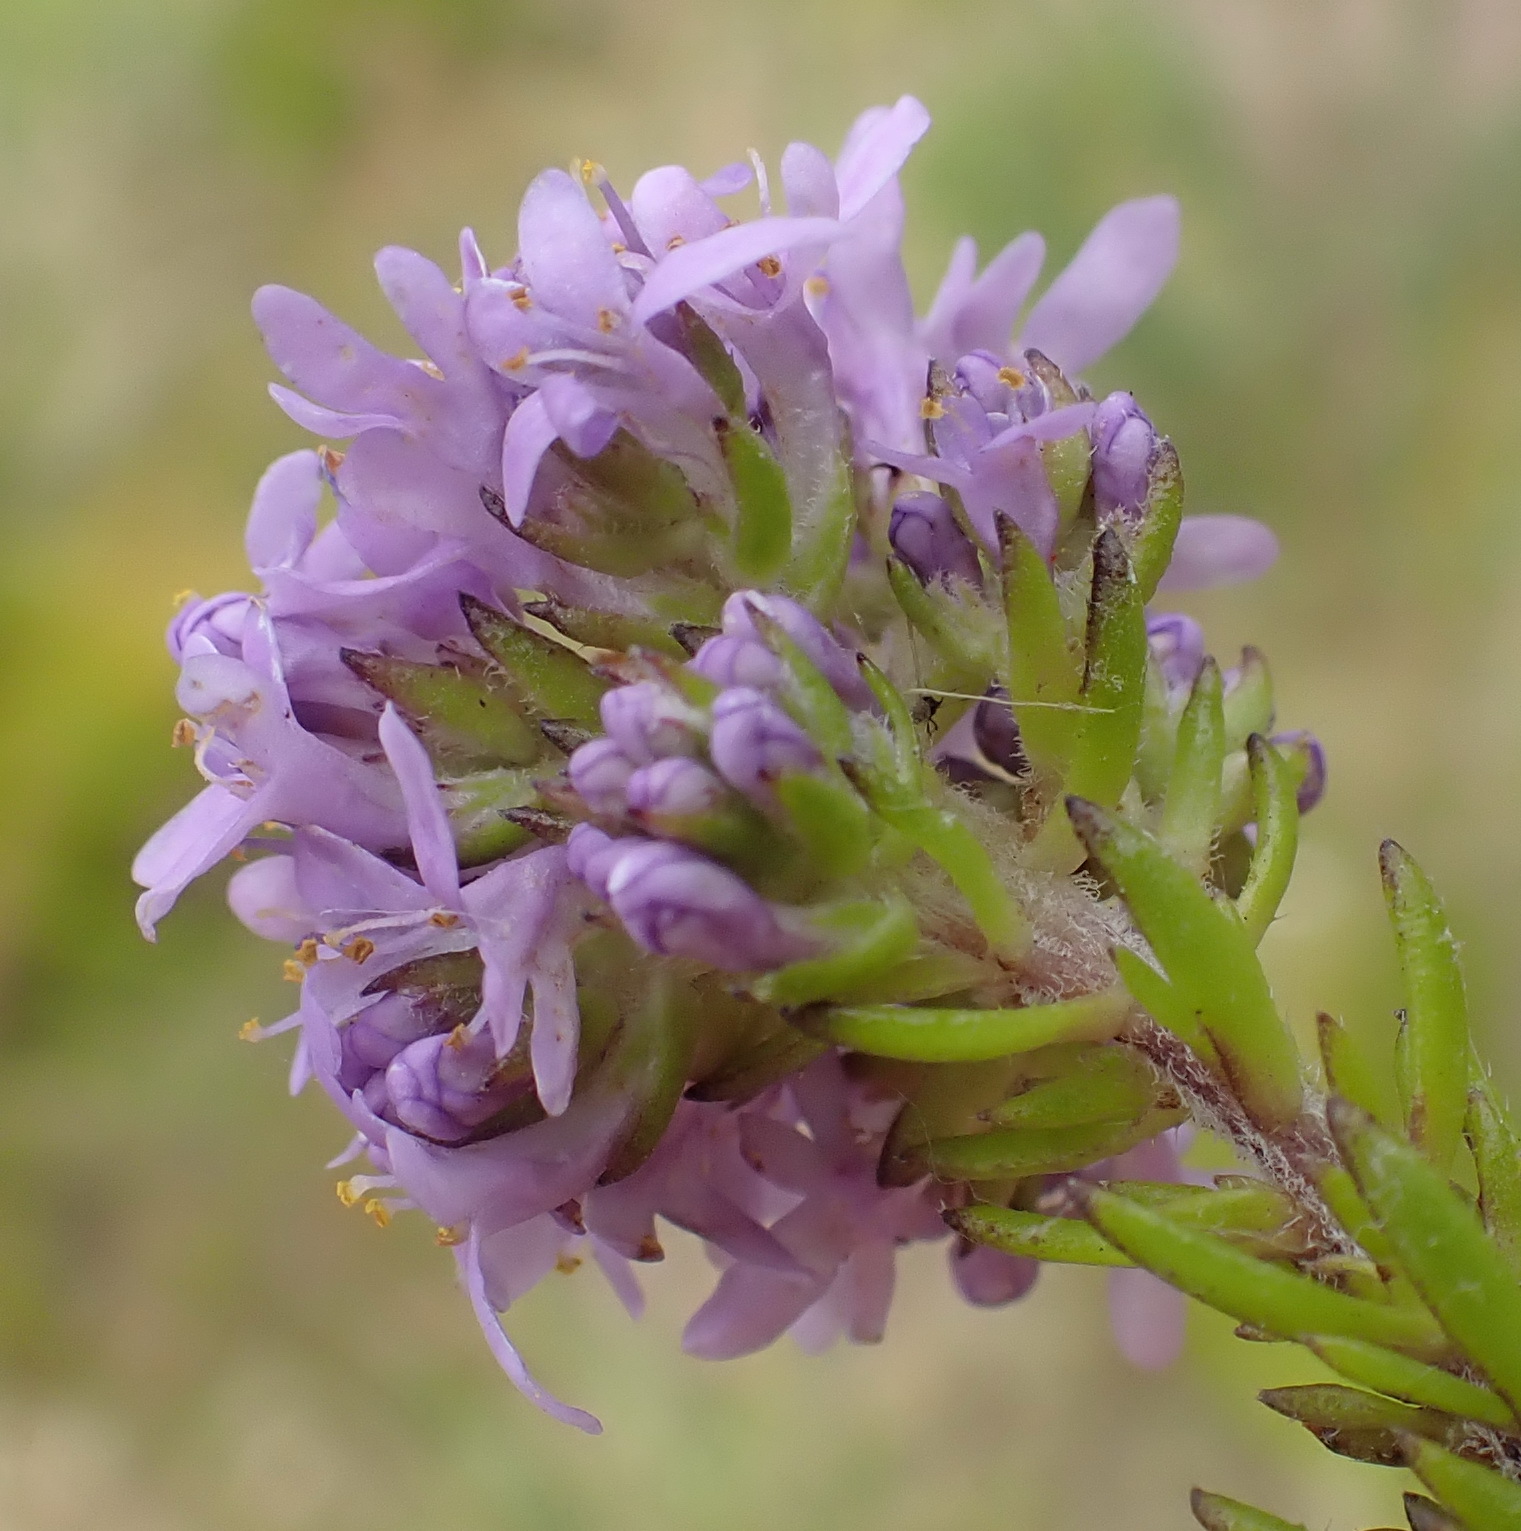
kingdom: Plantae
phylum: Tracheophyta
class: Magnoliopsida
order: Lamiales
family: Scrophulariaceae
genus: Selago
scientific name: Selago villicaulis
